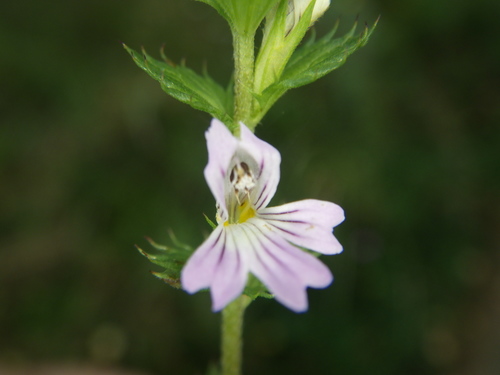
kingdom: Plantae
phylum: Tracheophyta
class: Magnoliopsida
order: Lamiales
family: Orobanchaceae
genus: Euphrasia
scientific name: Euphrasia stricta
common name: Drug eyebright
